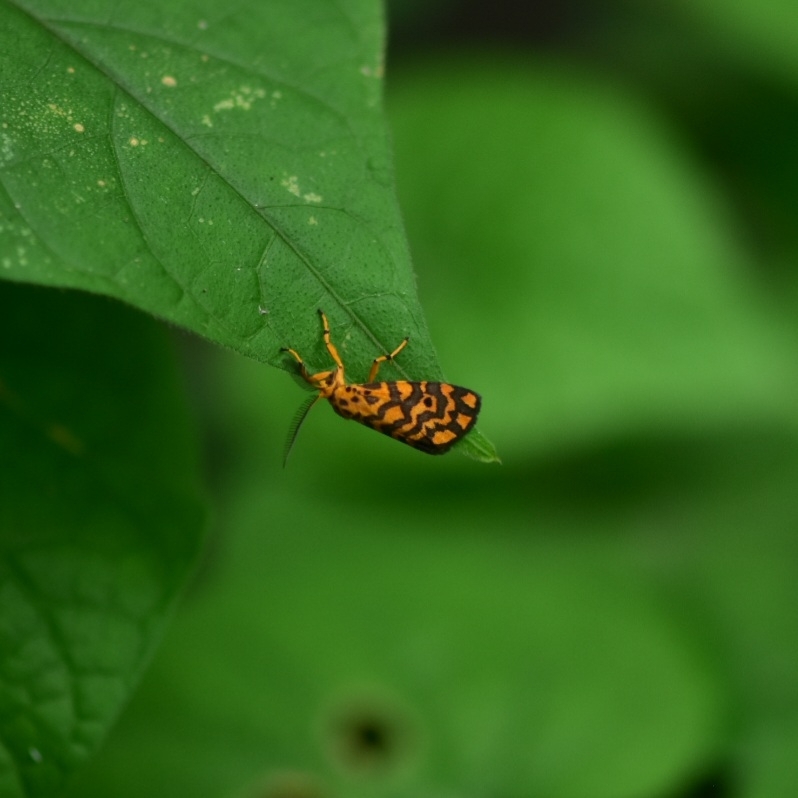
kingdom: Animalia
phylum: Arthropoda
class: Insecta
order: Lepidoptera
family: Erebidae
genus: Nepita
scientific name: Nepita conferta
